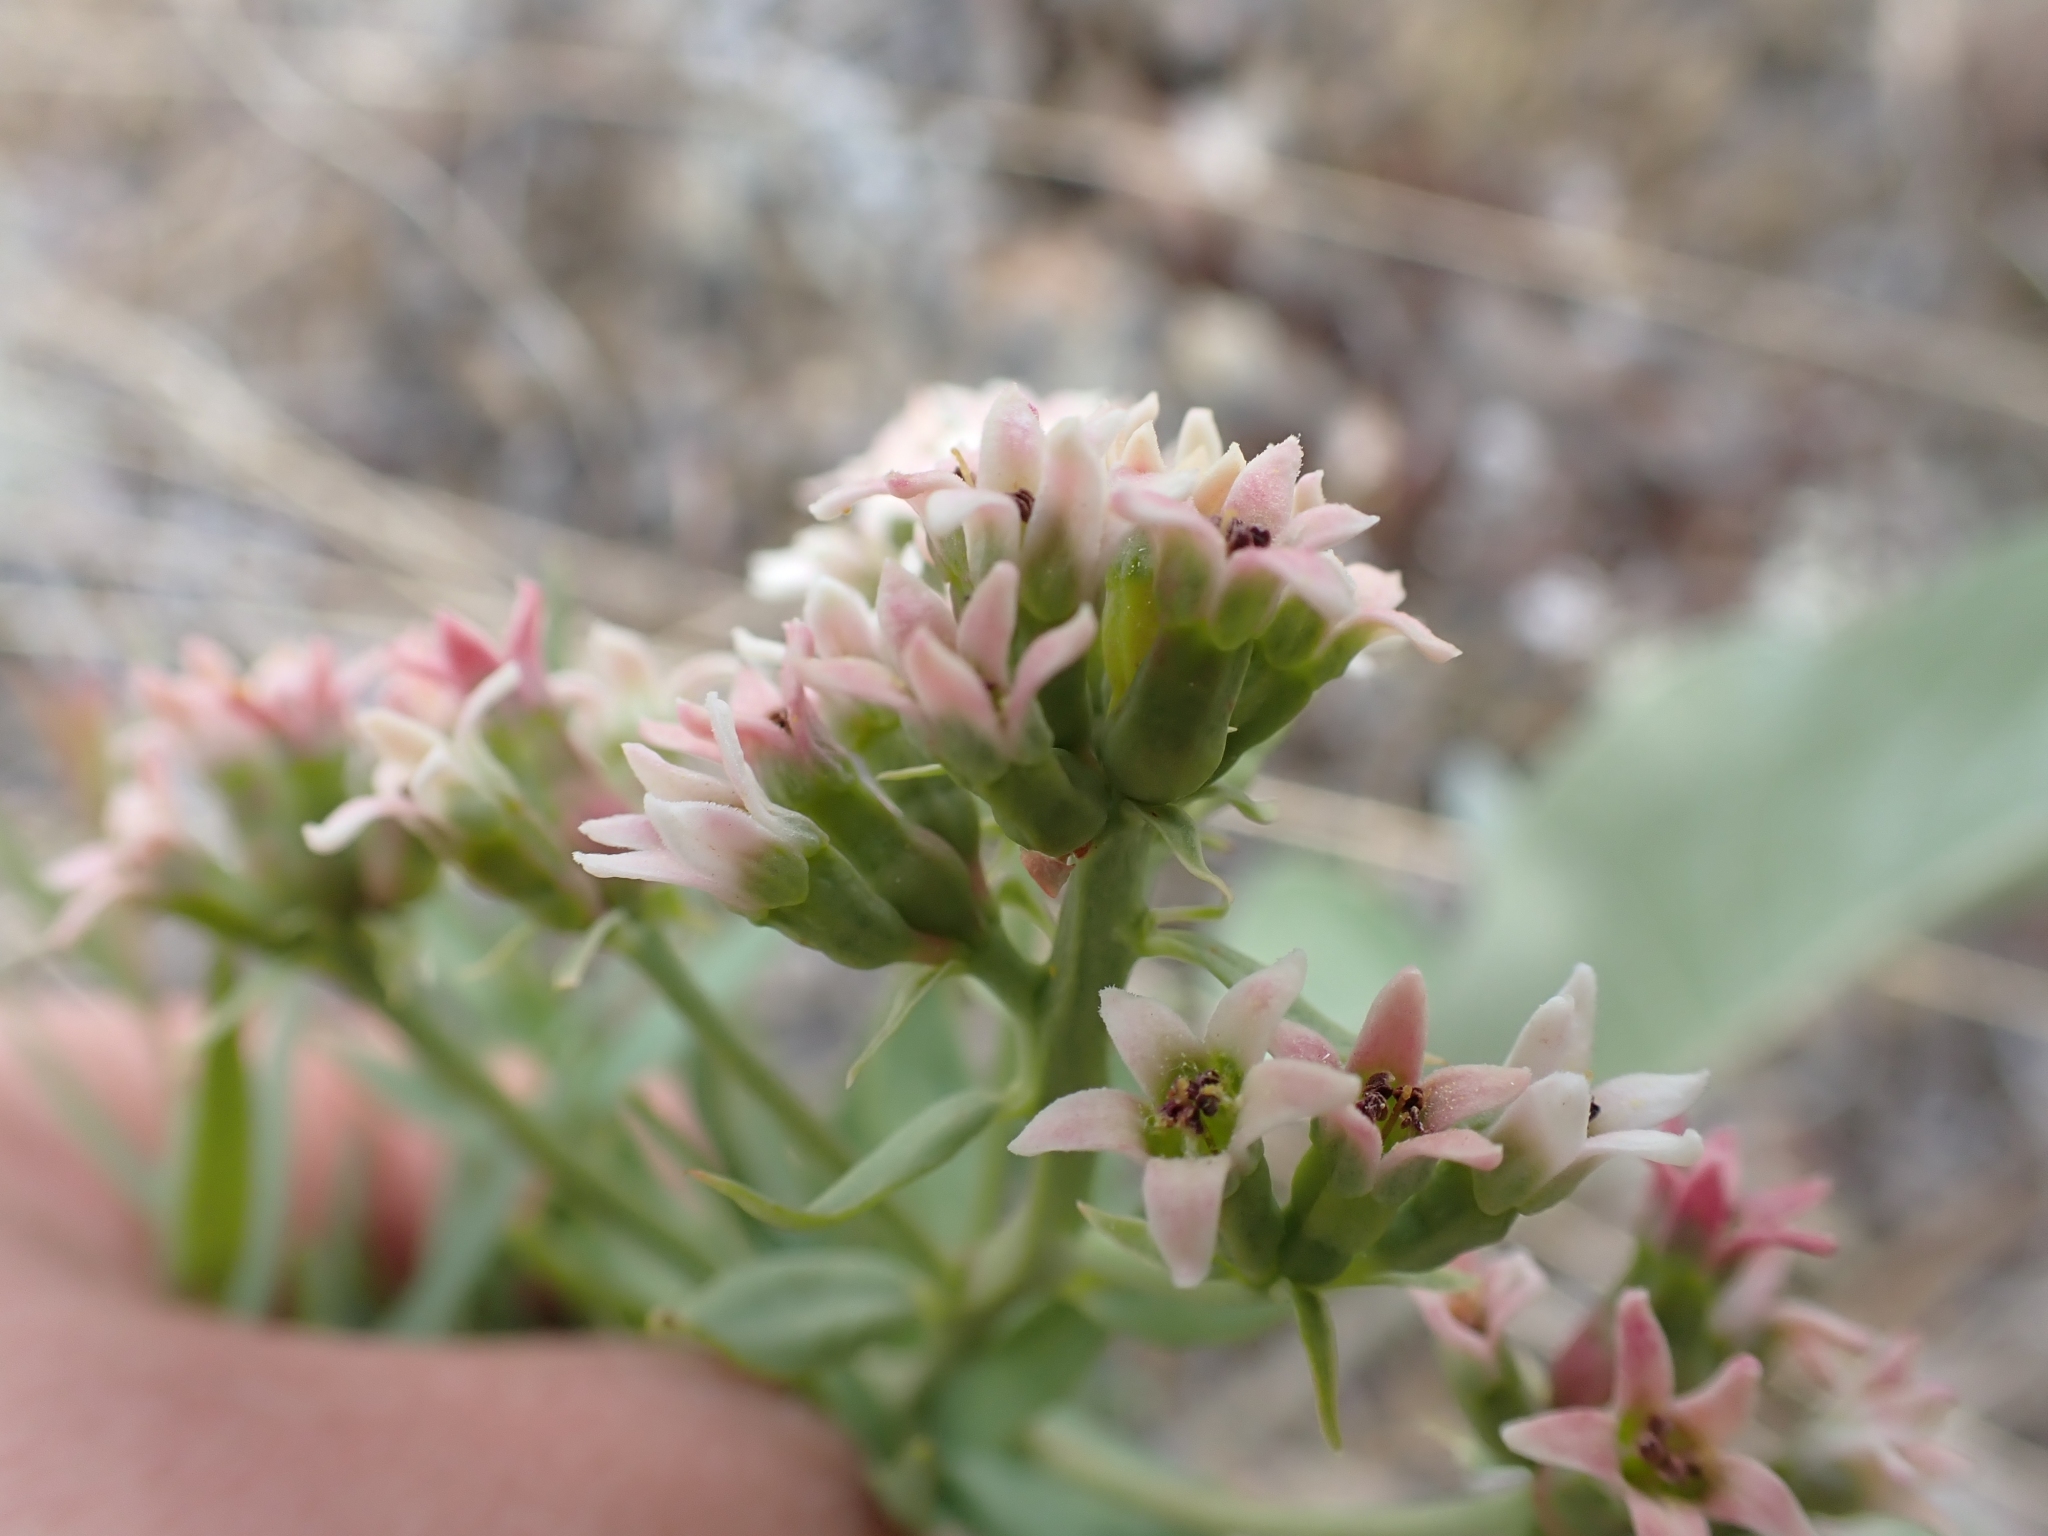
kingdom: Plantae
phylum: Tracheophyta
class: Magnoliopsida
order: Santalales
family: Comandraceae
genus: Comandra
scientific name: Comandra umbellata
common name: Bastard toadflax
